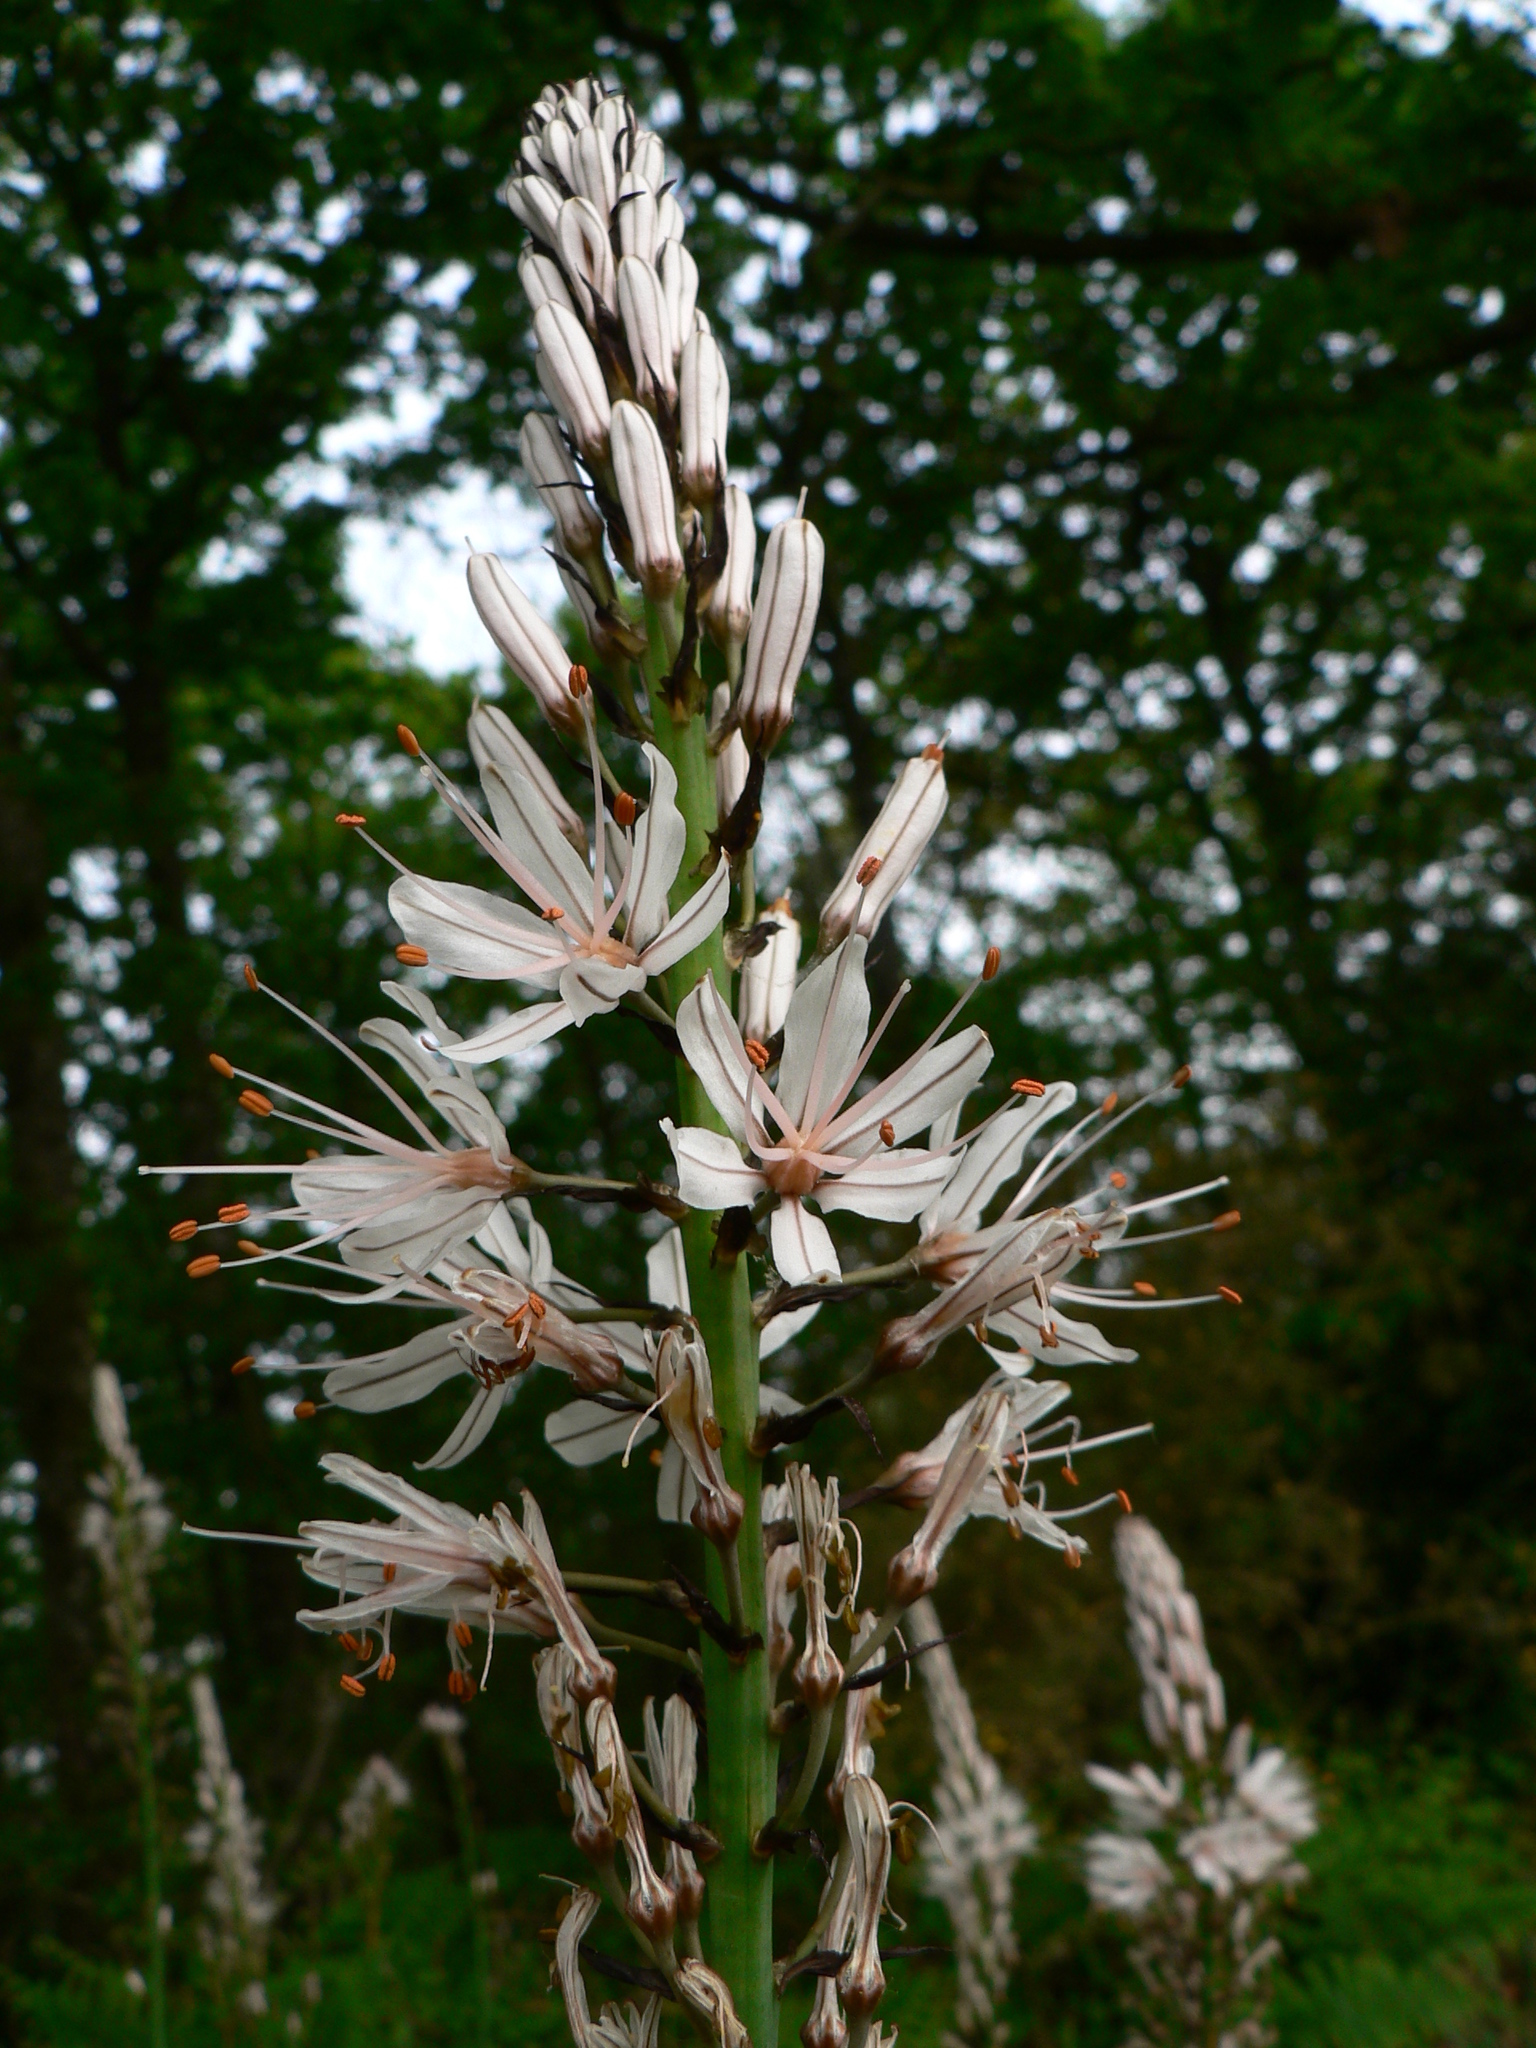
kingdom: Plantae
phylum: Tracheophyta
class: Liliopsida
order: Asparagales
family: Asphodelaceae
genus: Asphodelus
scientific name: Asphodelus albus
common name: White asphodel
